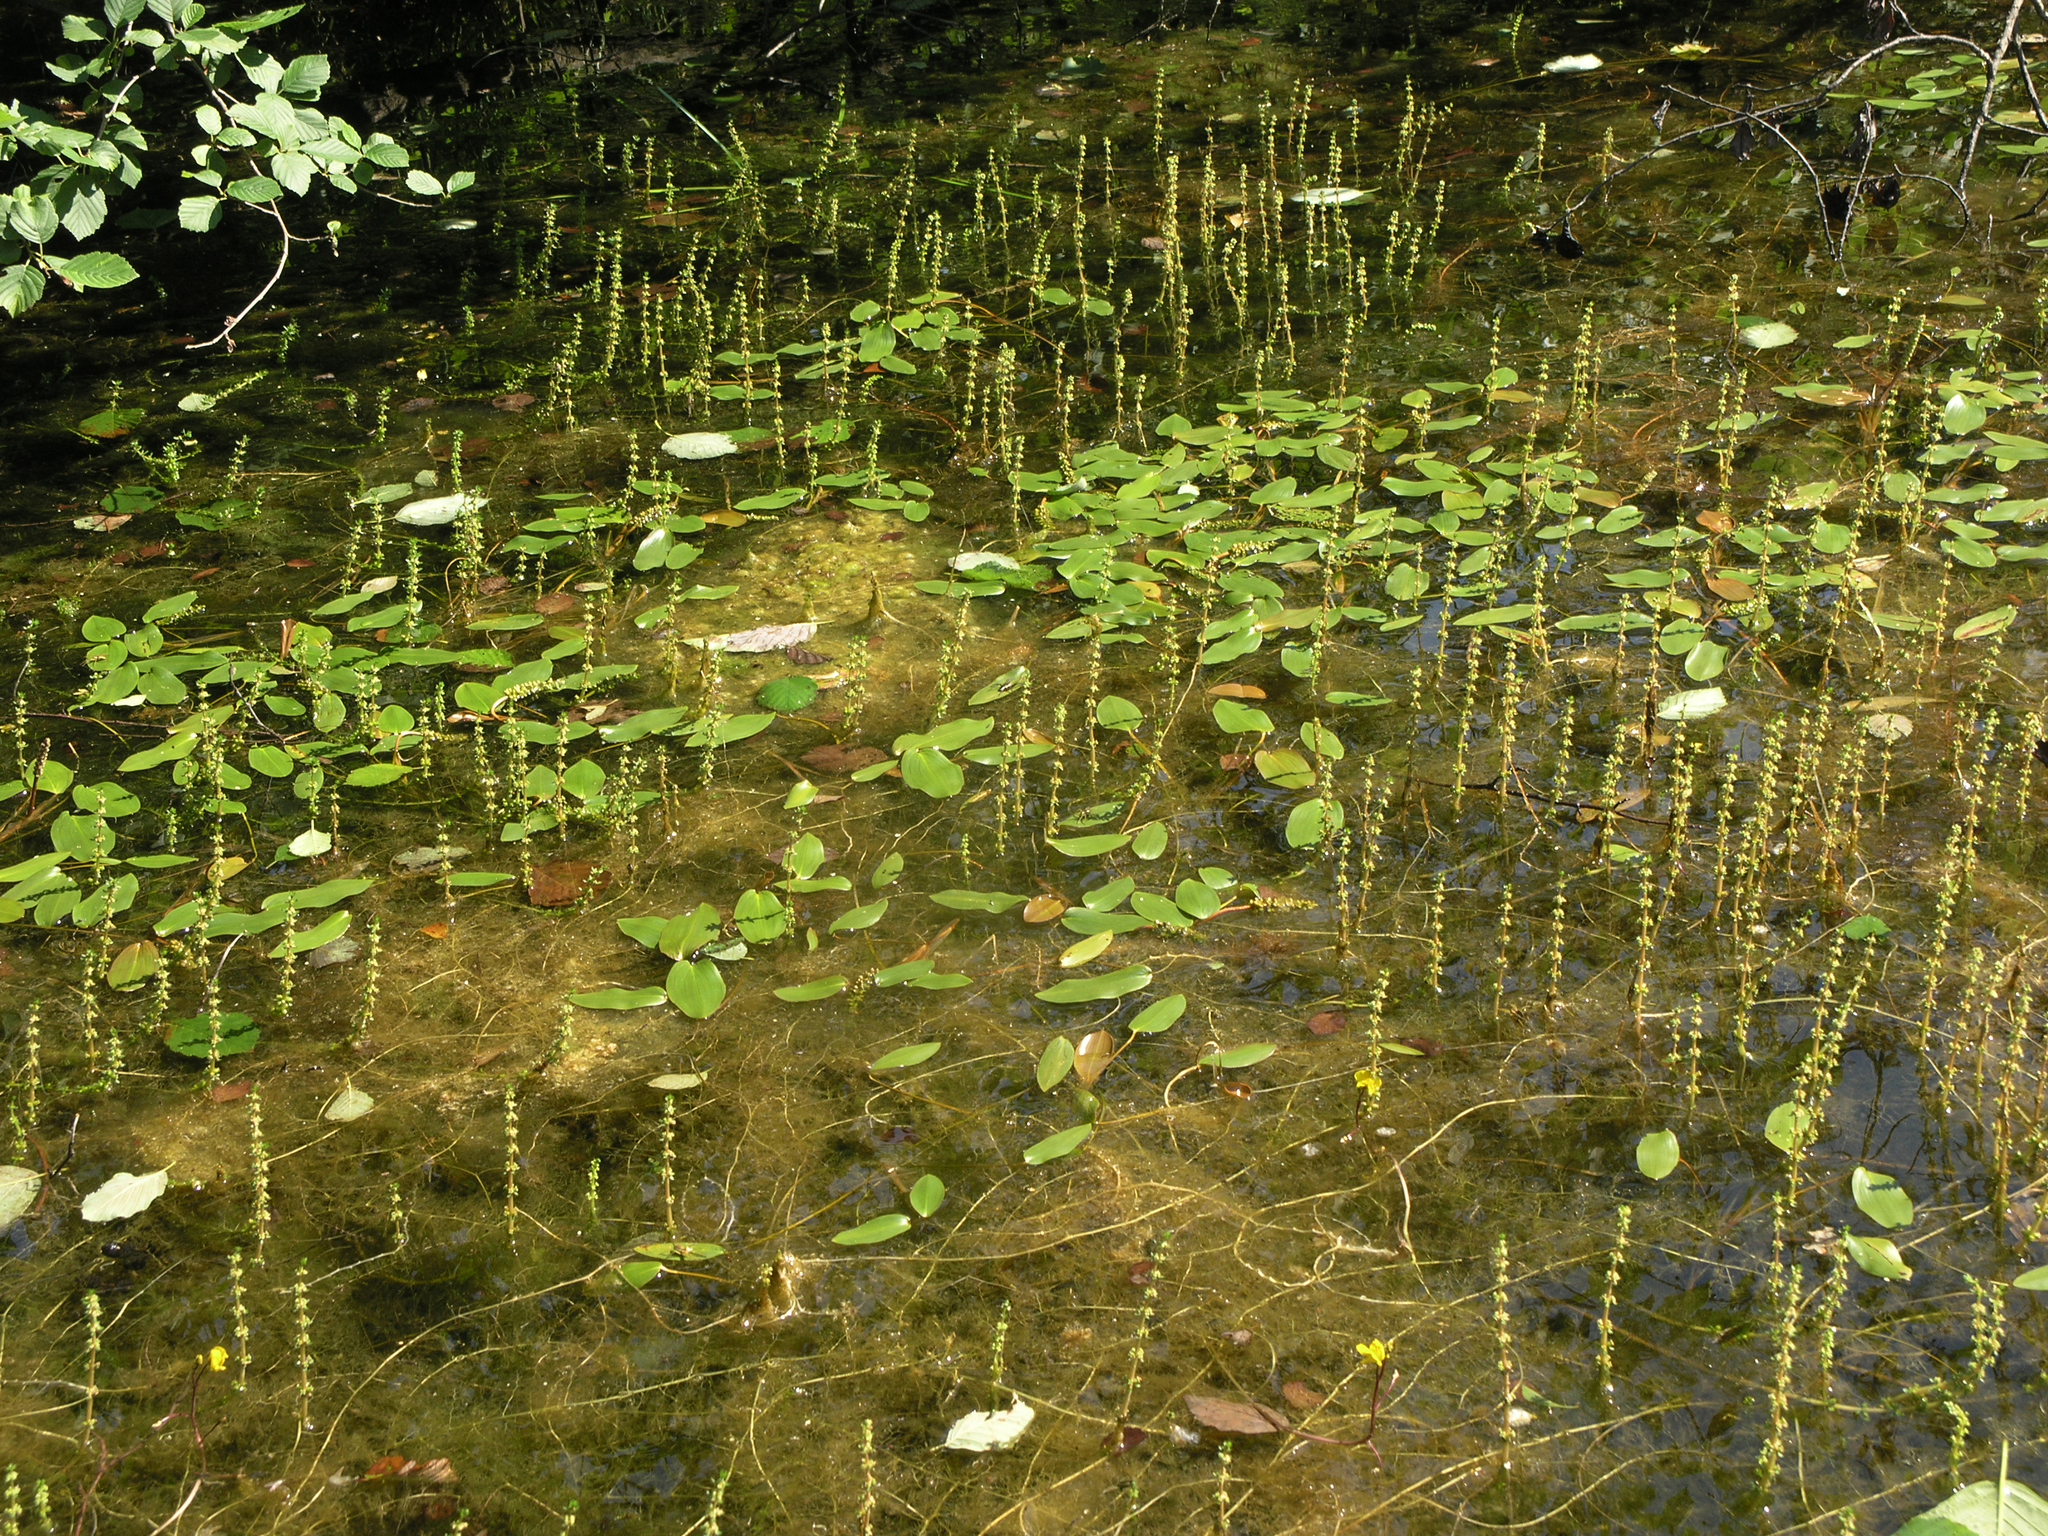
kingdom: Plantae
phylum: Tracheophyta
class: Liliopsida
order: Alismatales
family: Potamogetonaceae
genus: Potamogeton
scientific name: Potamogeton natans
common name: Broad-leaved pondweed
